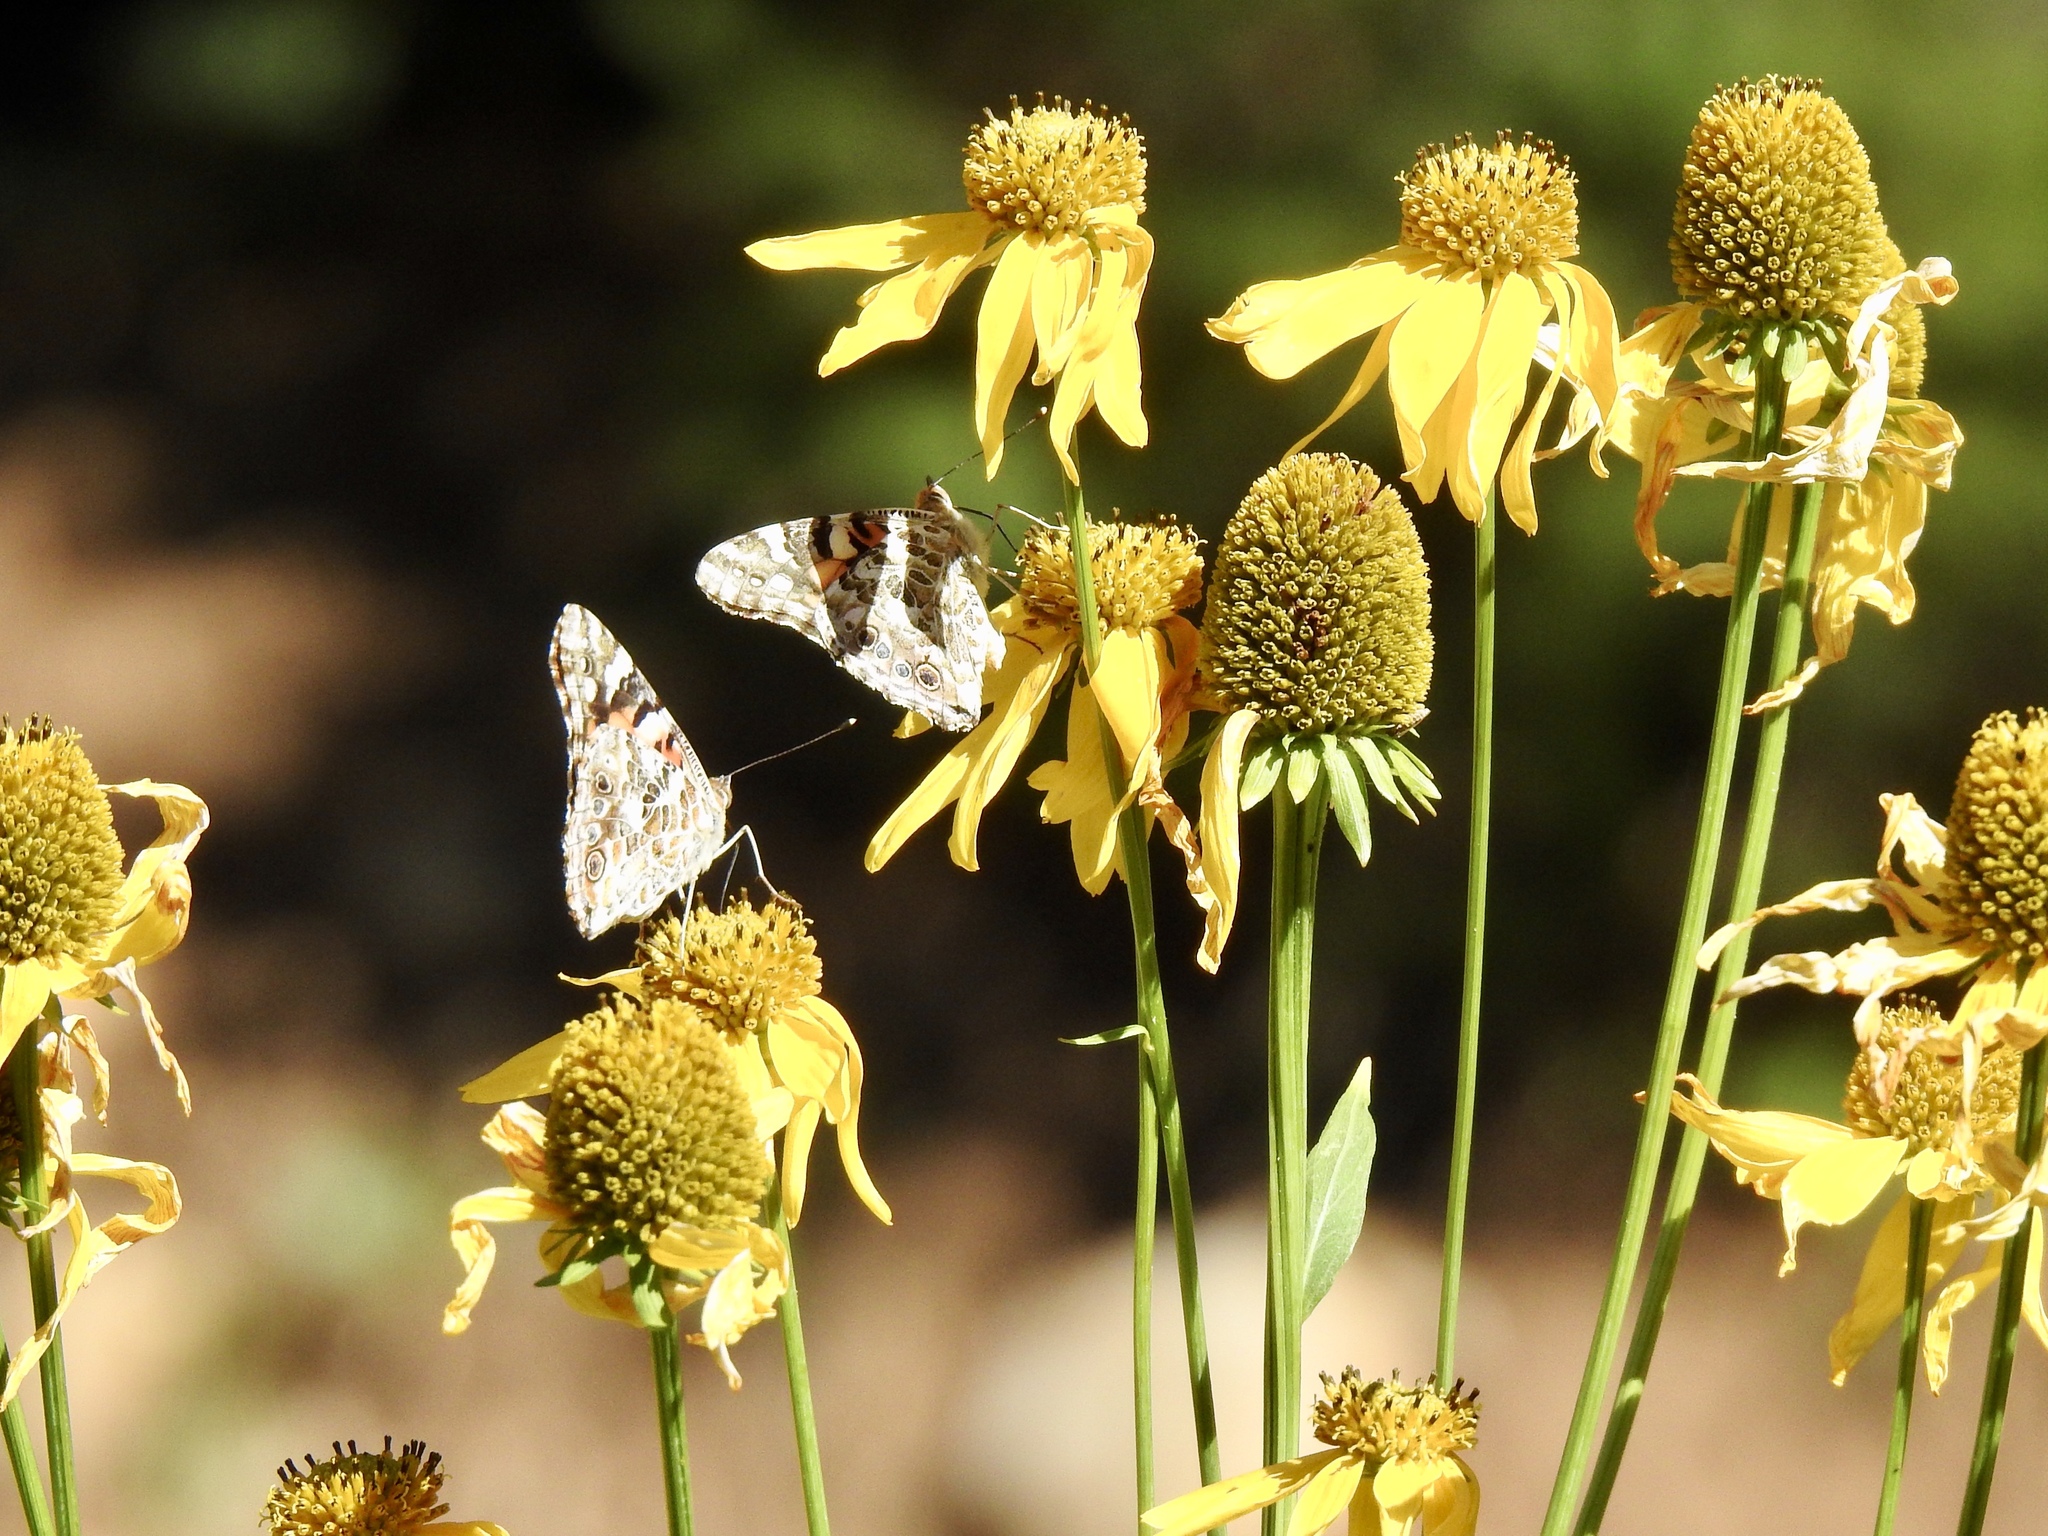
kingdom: Animalia
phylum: Arthropoda
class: Insecta
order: Lepidoptera
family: Nymphalidae
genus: Vanessa
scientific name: Vanessa cardui
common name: Painted lady
